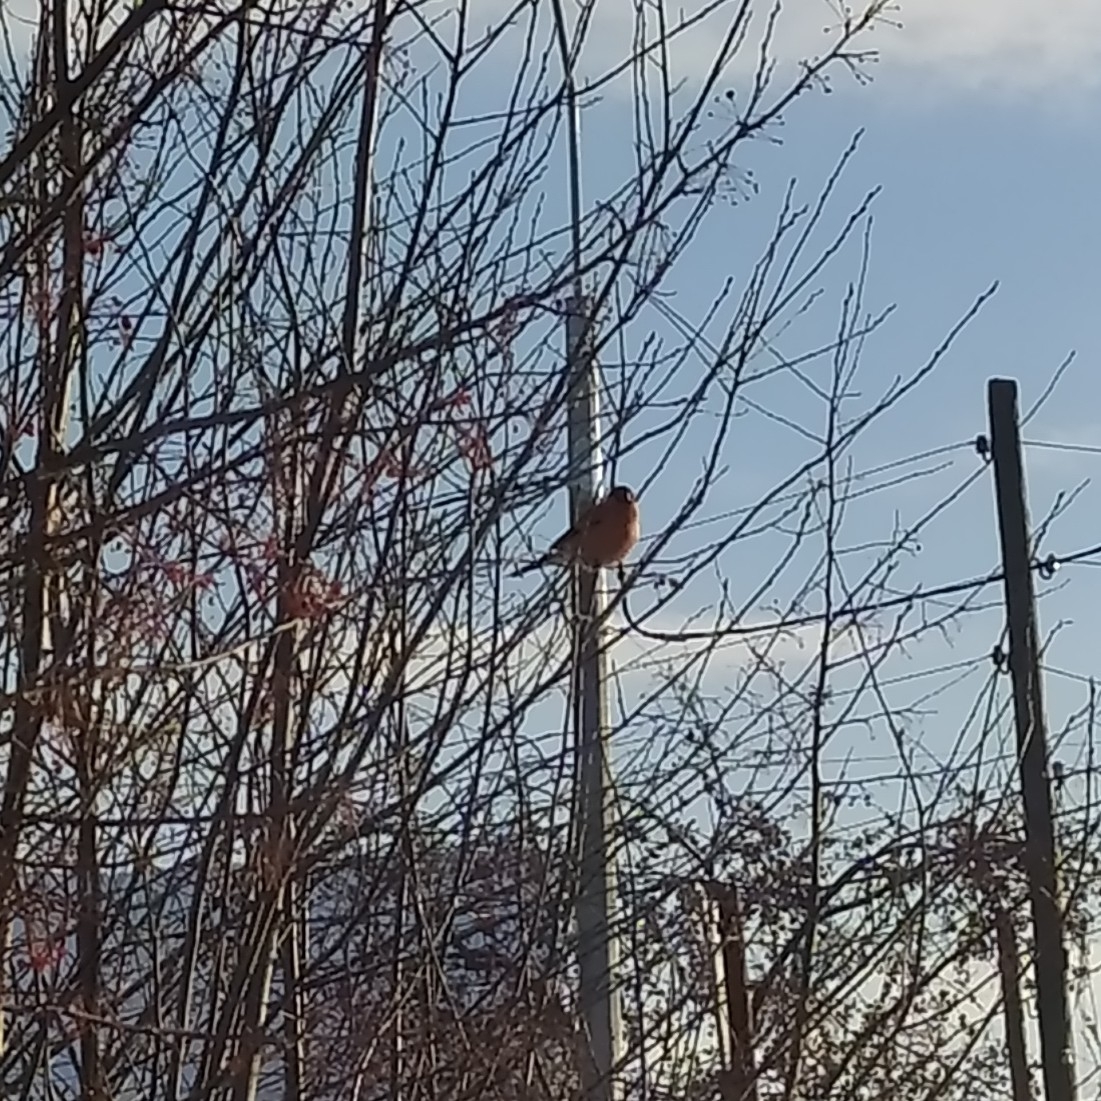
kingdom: Animalia
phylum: Chordata
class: Aves
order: Passeriformes
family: Fringillidae
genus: Pyrrhula
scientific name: Pyrrhula pyrrhula
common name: Eurasian bullfinch
